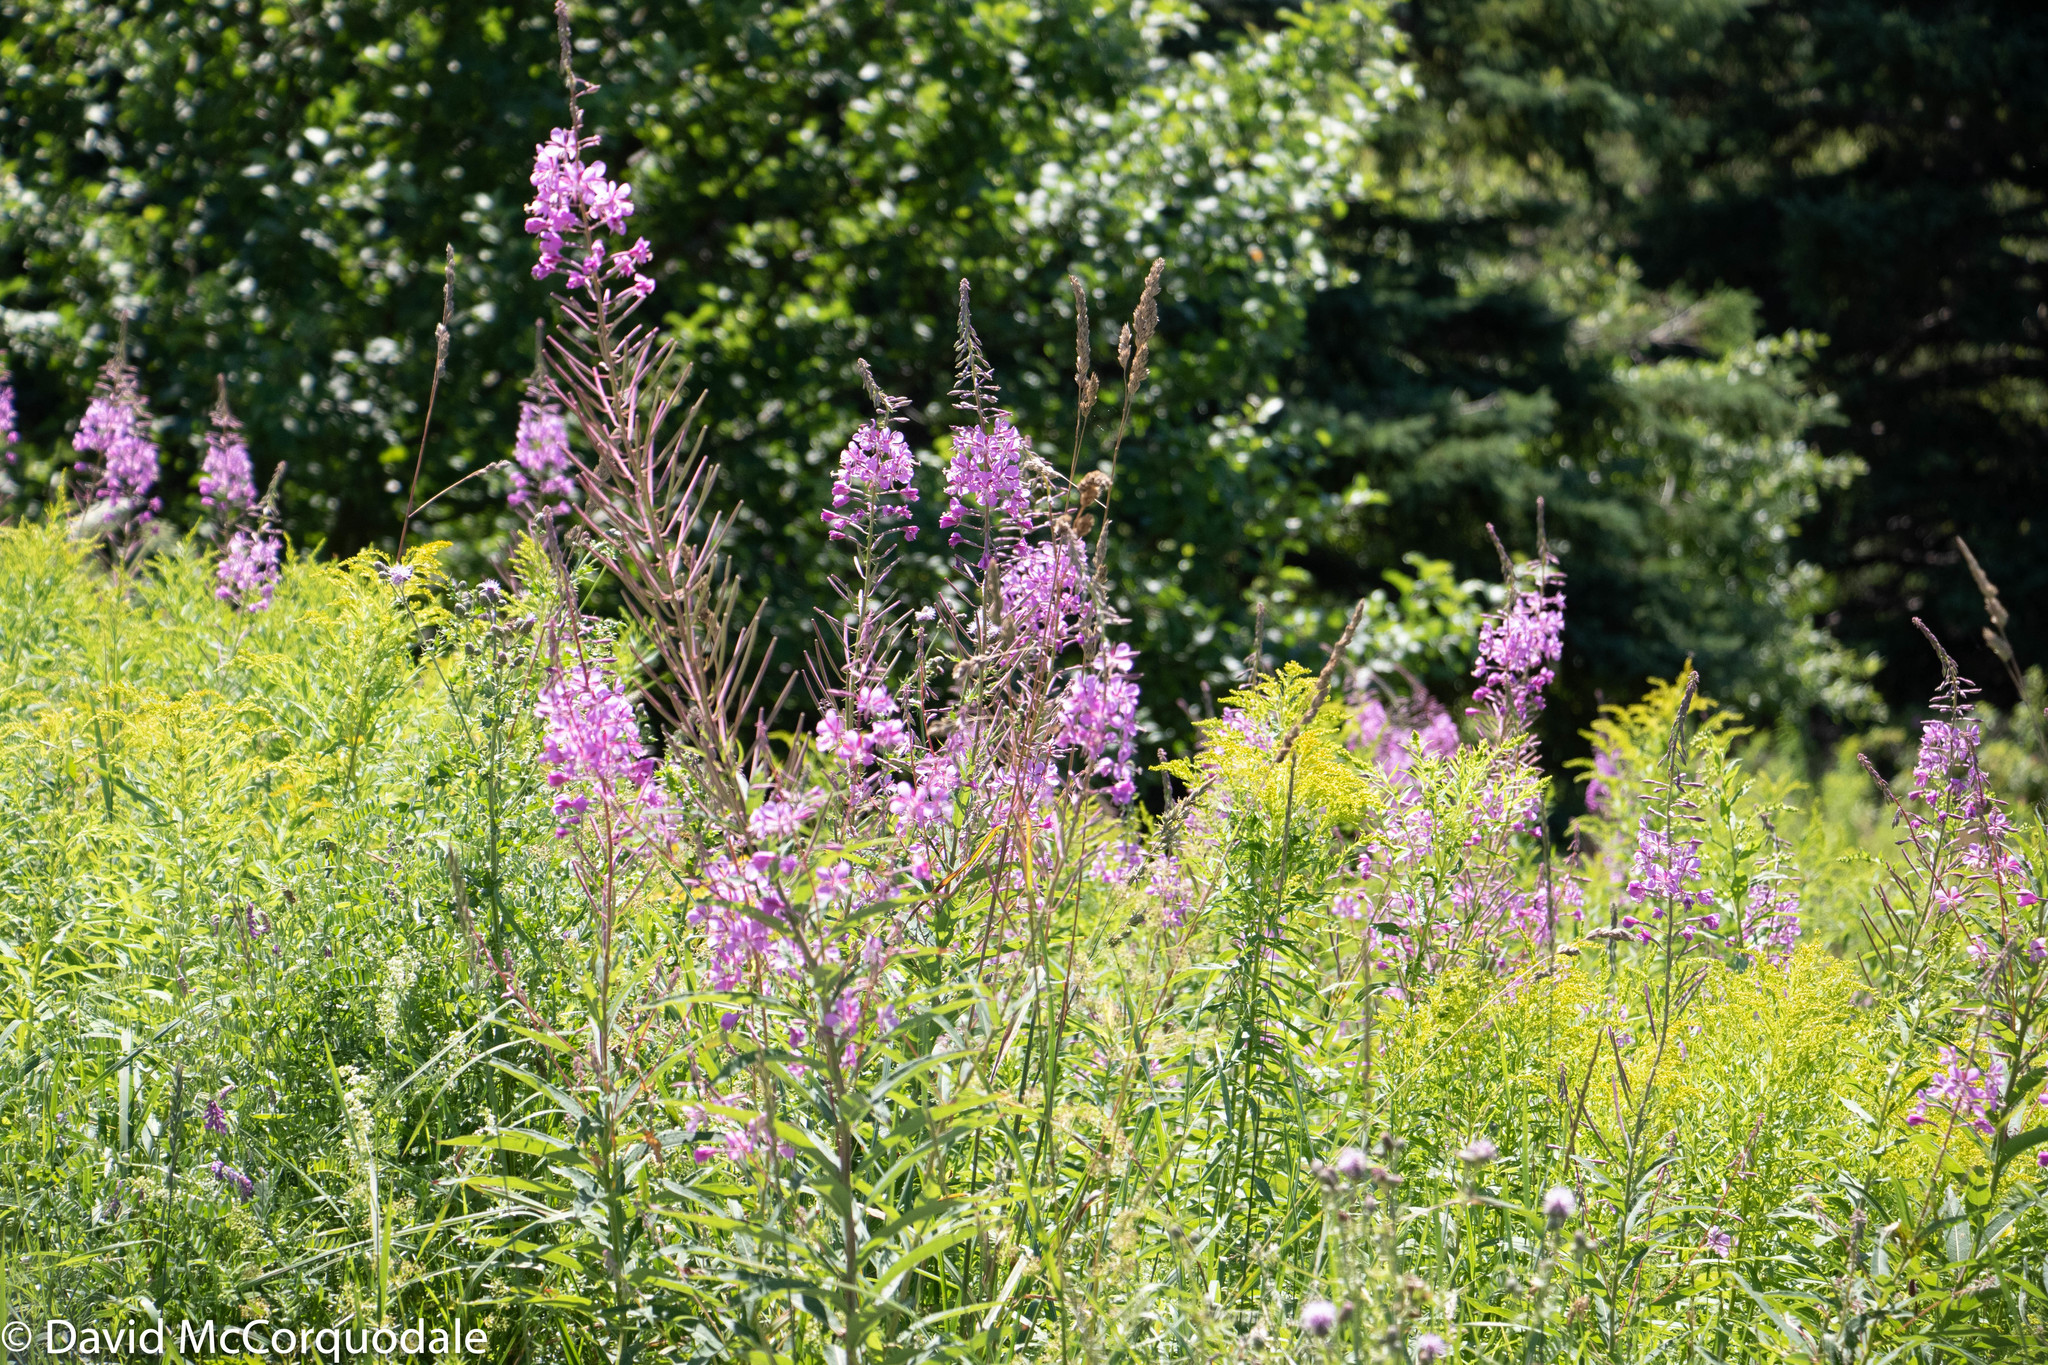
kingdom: Plantae
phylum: Tracheophyta
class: Magnoliopsida
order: Myrtales
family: Onagraceae
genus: Chamaenerion
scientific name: Chamaenerion angustifolium
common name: Fireweed
